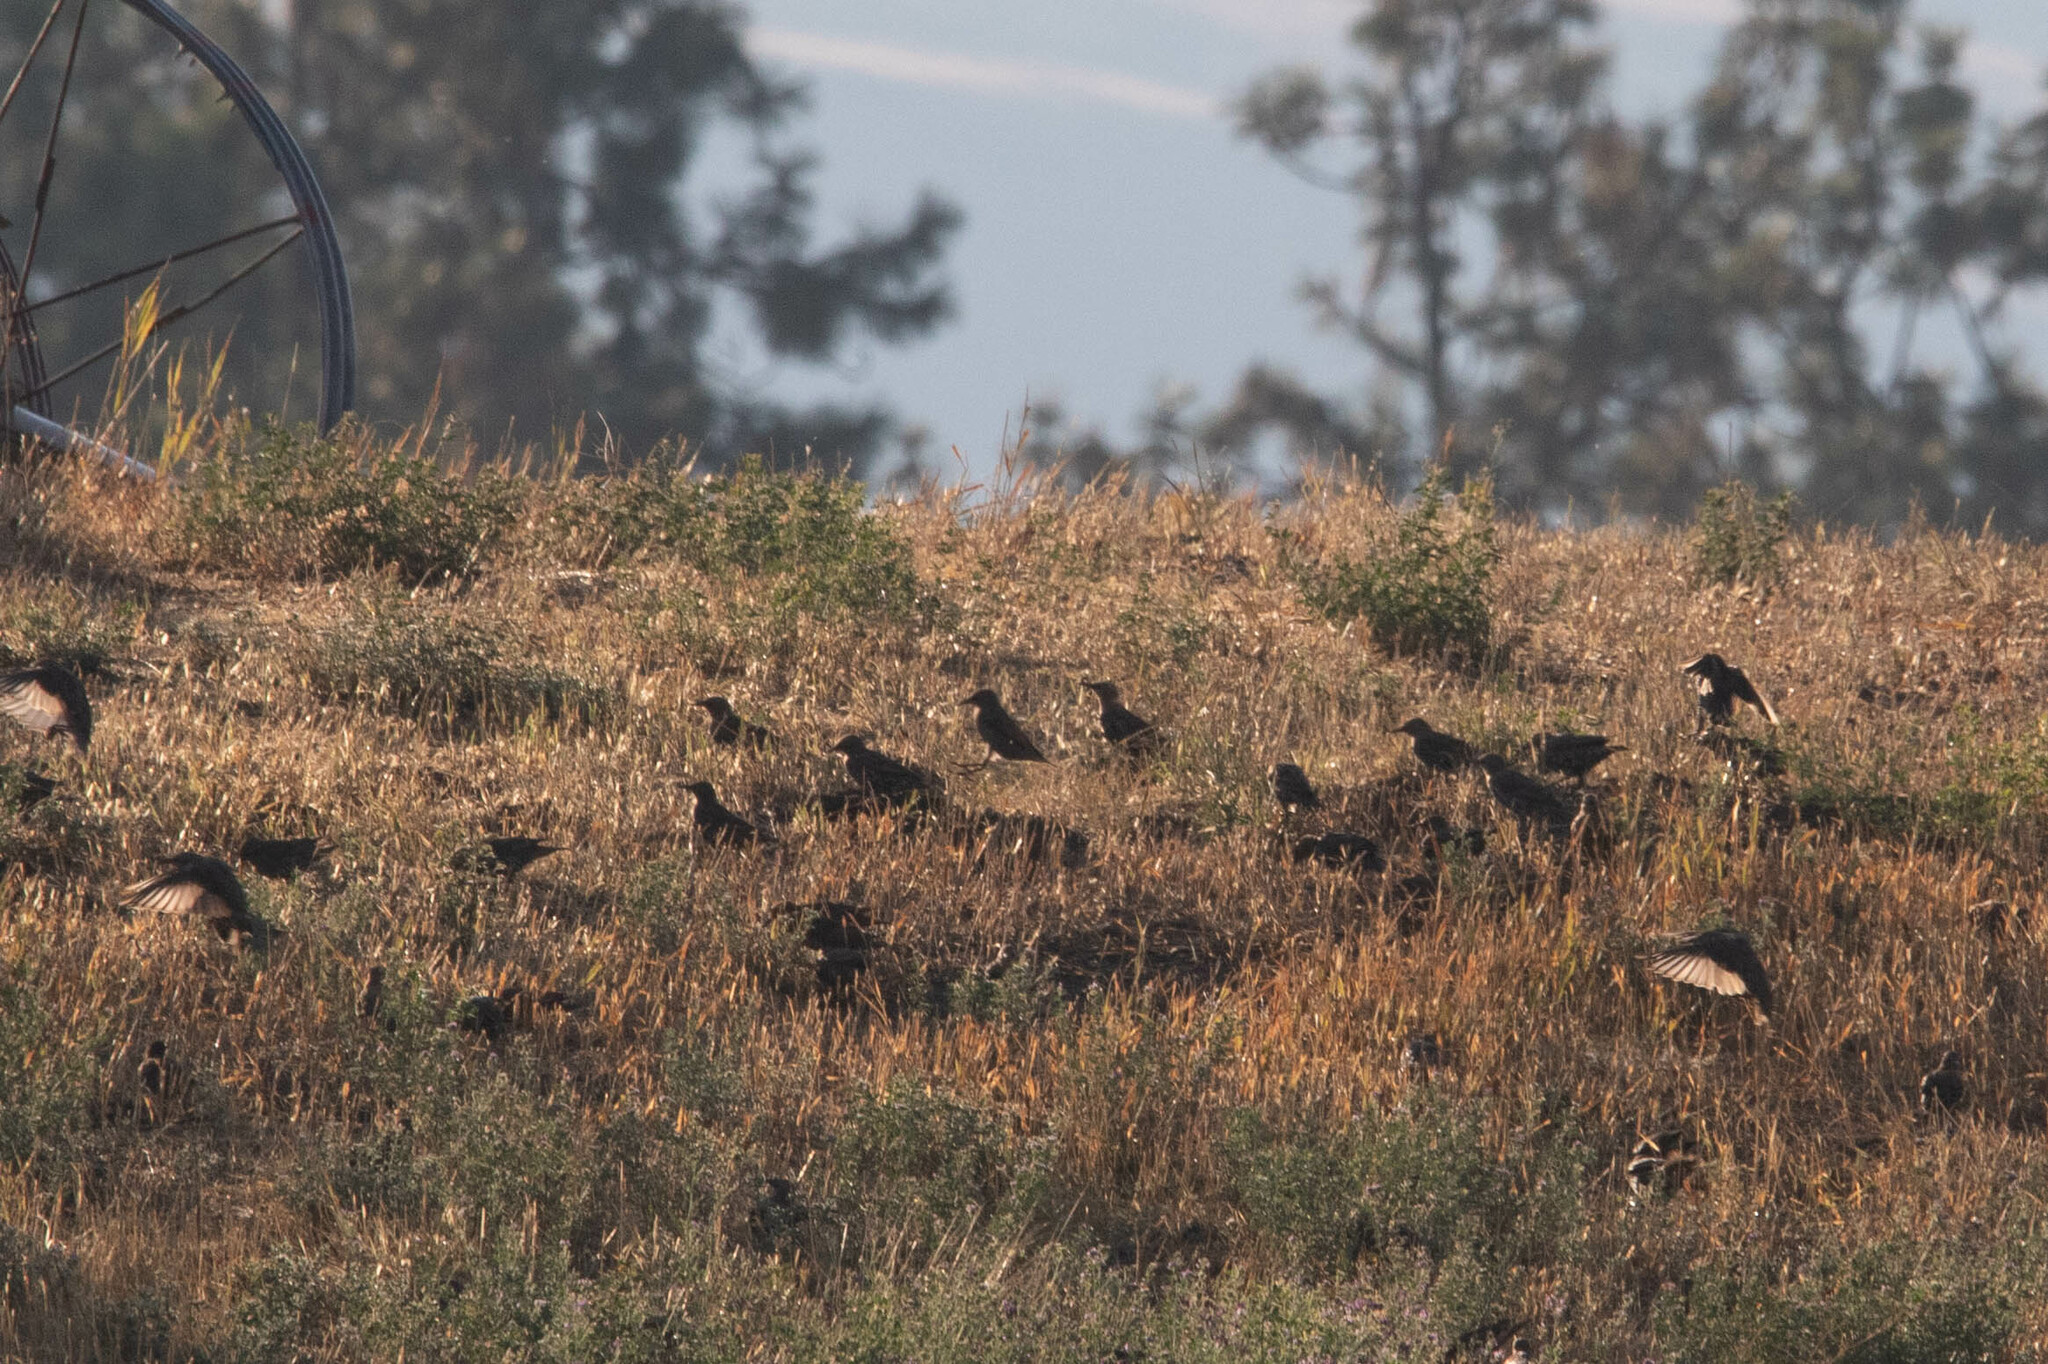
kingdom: Animalia
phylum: Chordata
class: Aves
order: Passeriformes
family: Sturnidae
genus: Sturnus
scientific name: Sturnus vulgaris
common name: Common starling
